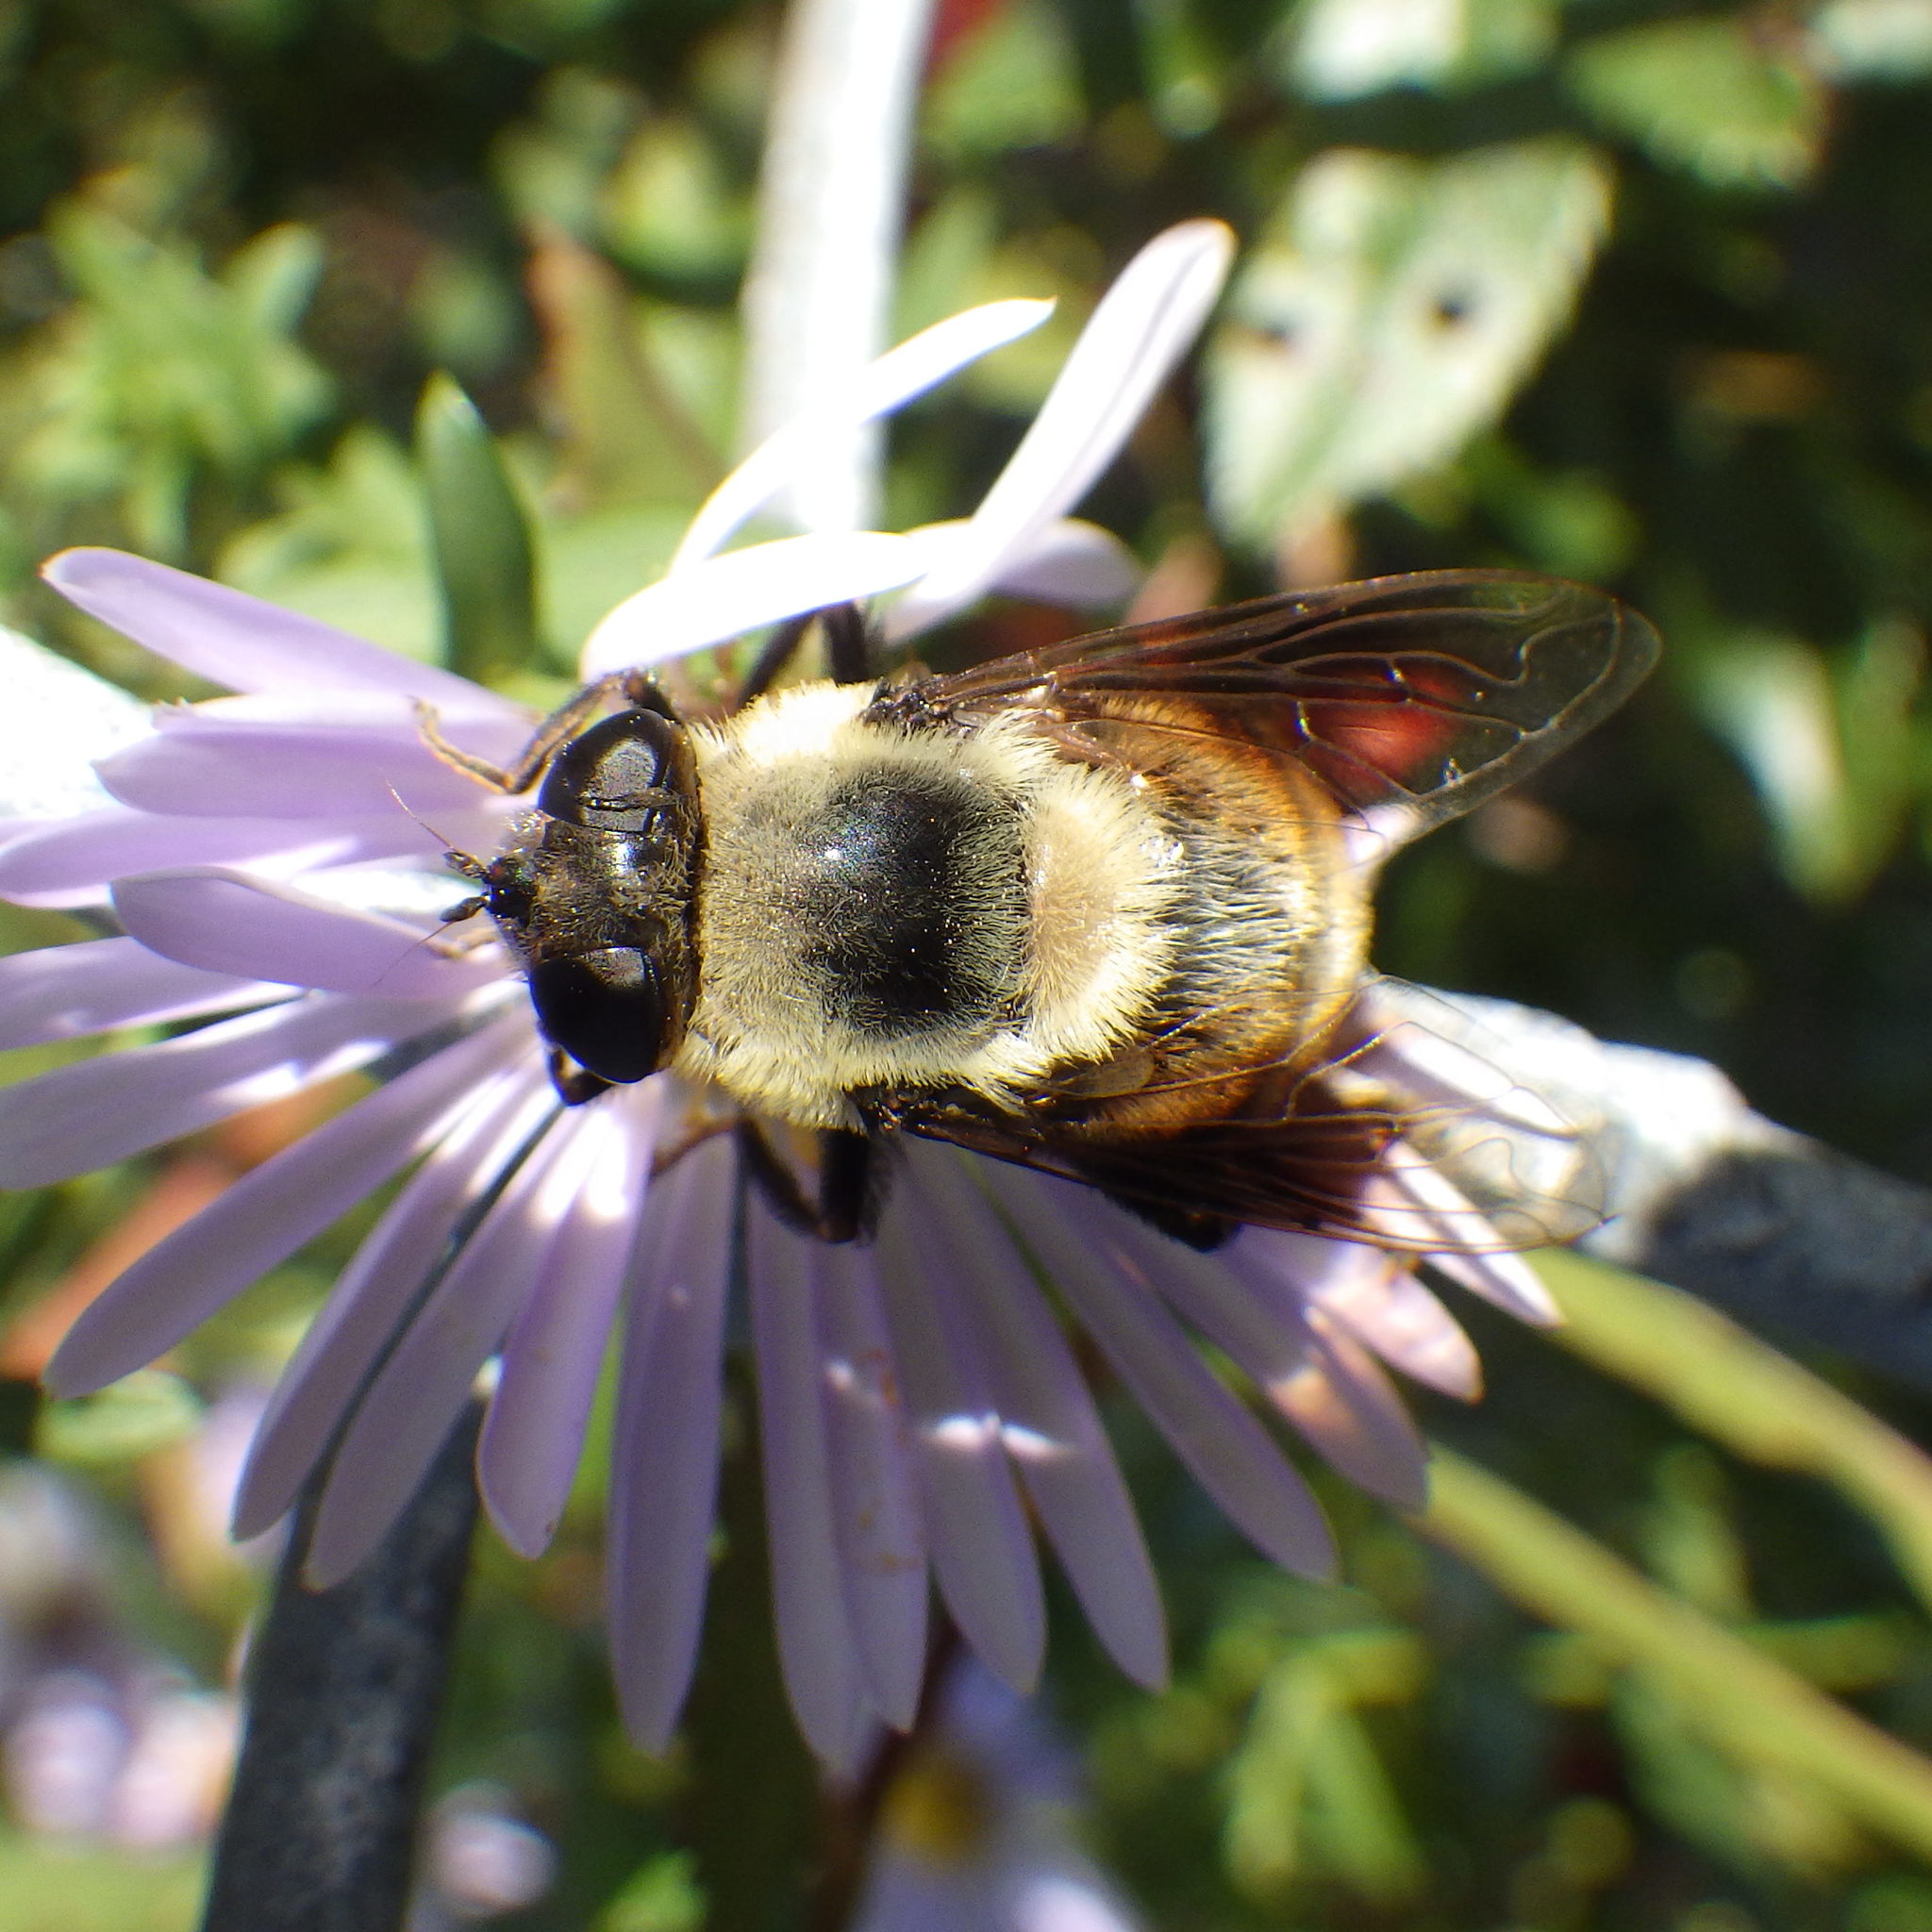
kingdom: Animalia
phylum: Arthropoda
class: Insecta
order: Diptera
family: Syrphidae
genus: Eristalis
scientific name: Eristalis flavipes
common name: Orange-legged drone fly
